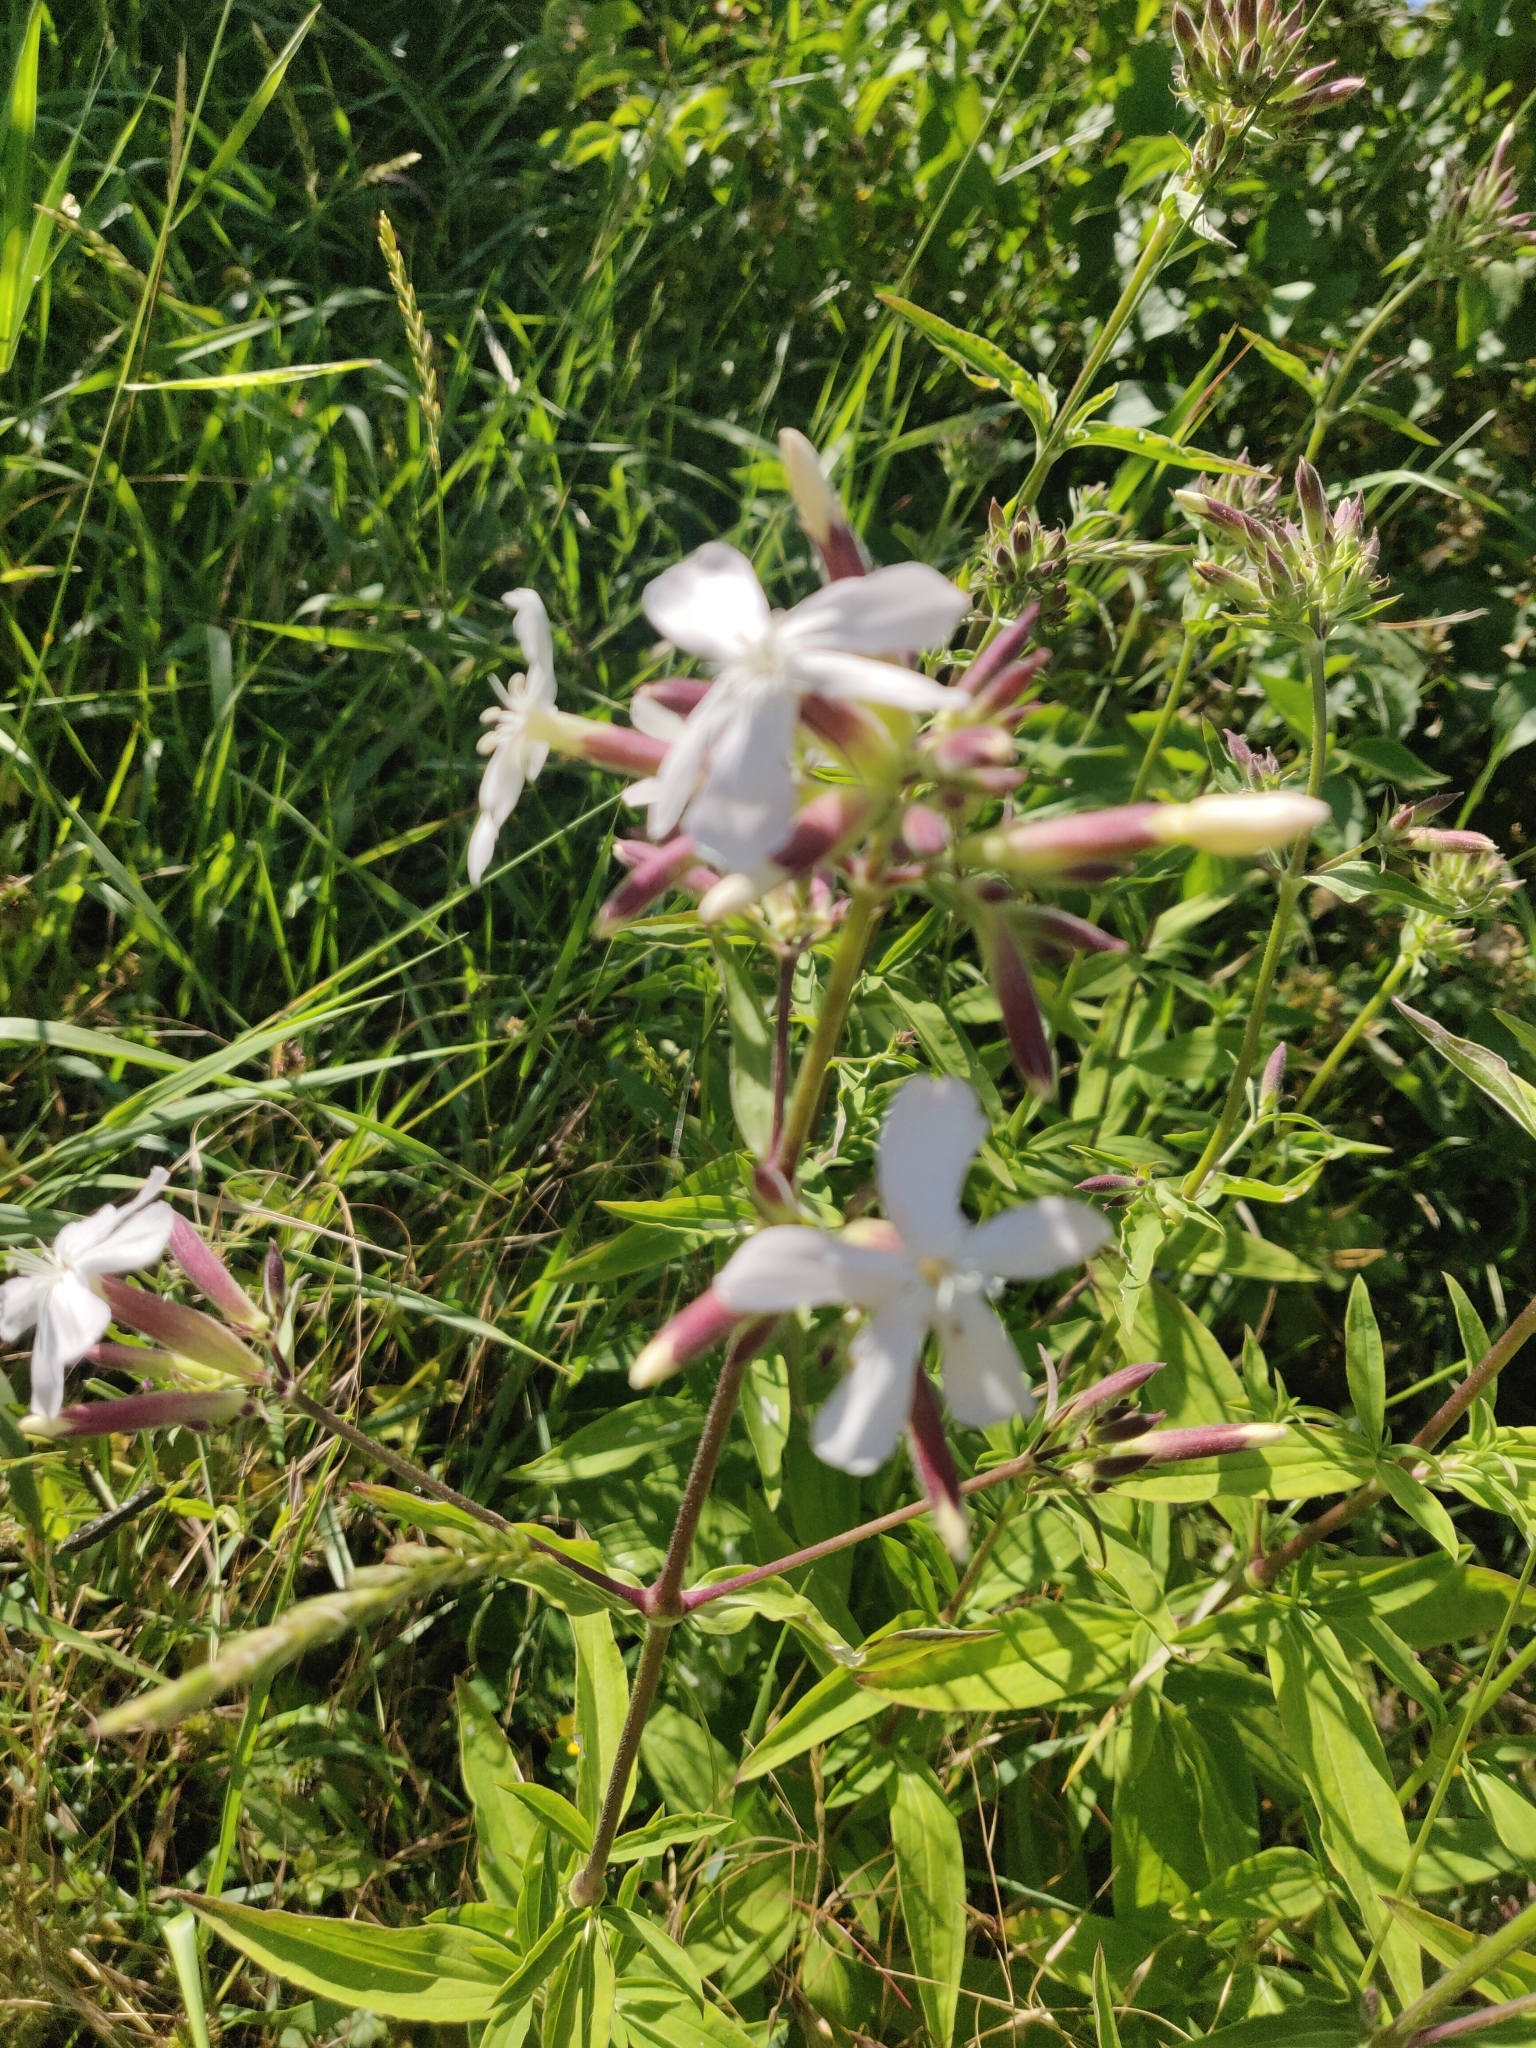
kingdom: Plantae
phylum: Tracheophyta
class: Magnoliopsida
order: Caryophyllales
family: Caryophyllaceae
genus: Saponaria
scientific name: Saponaria officinalis
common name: Soapwort
